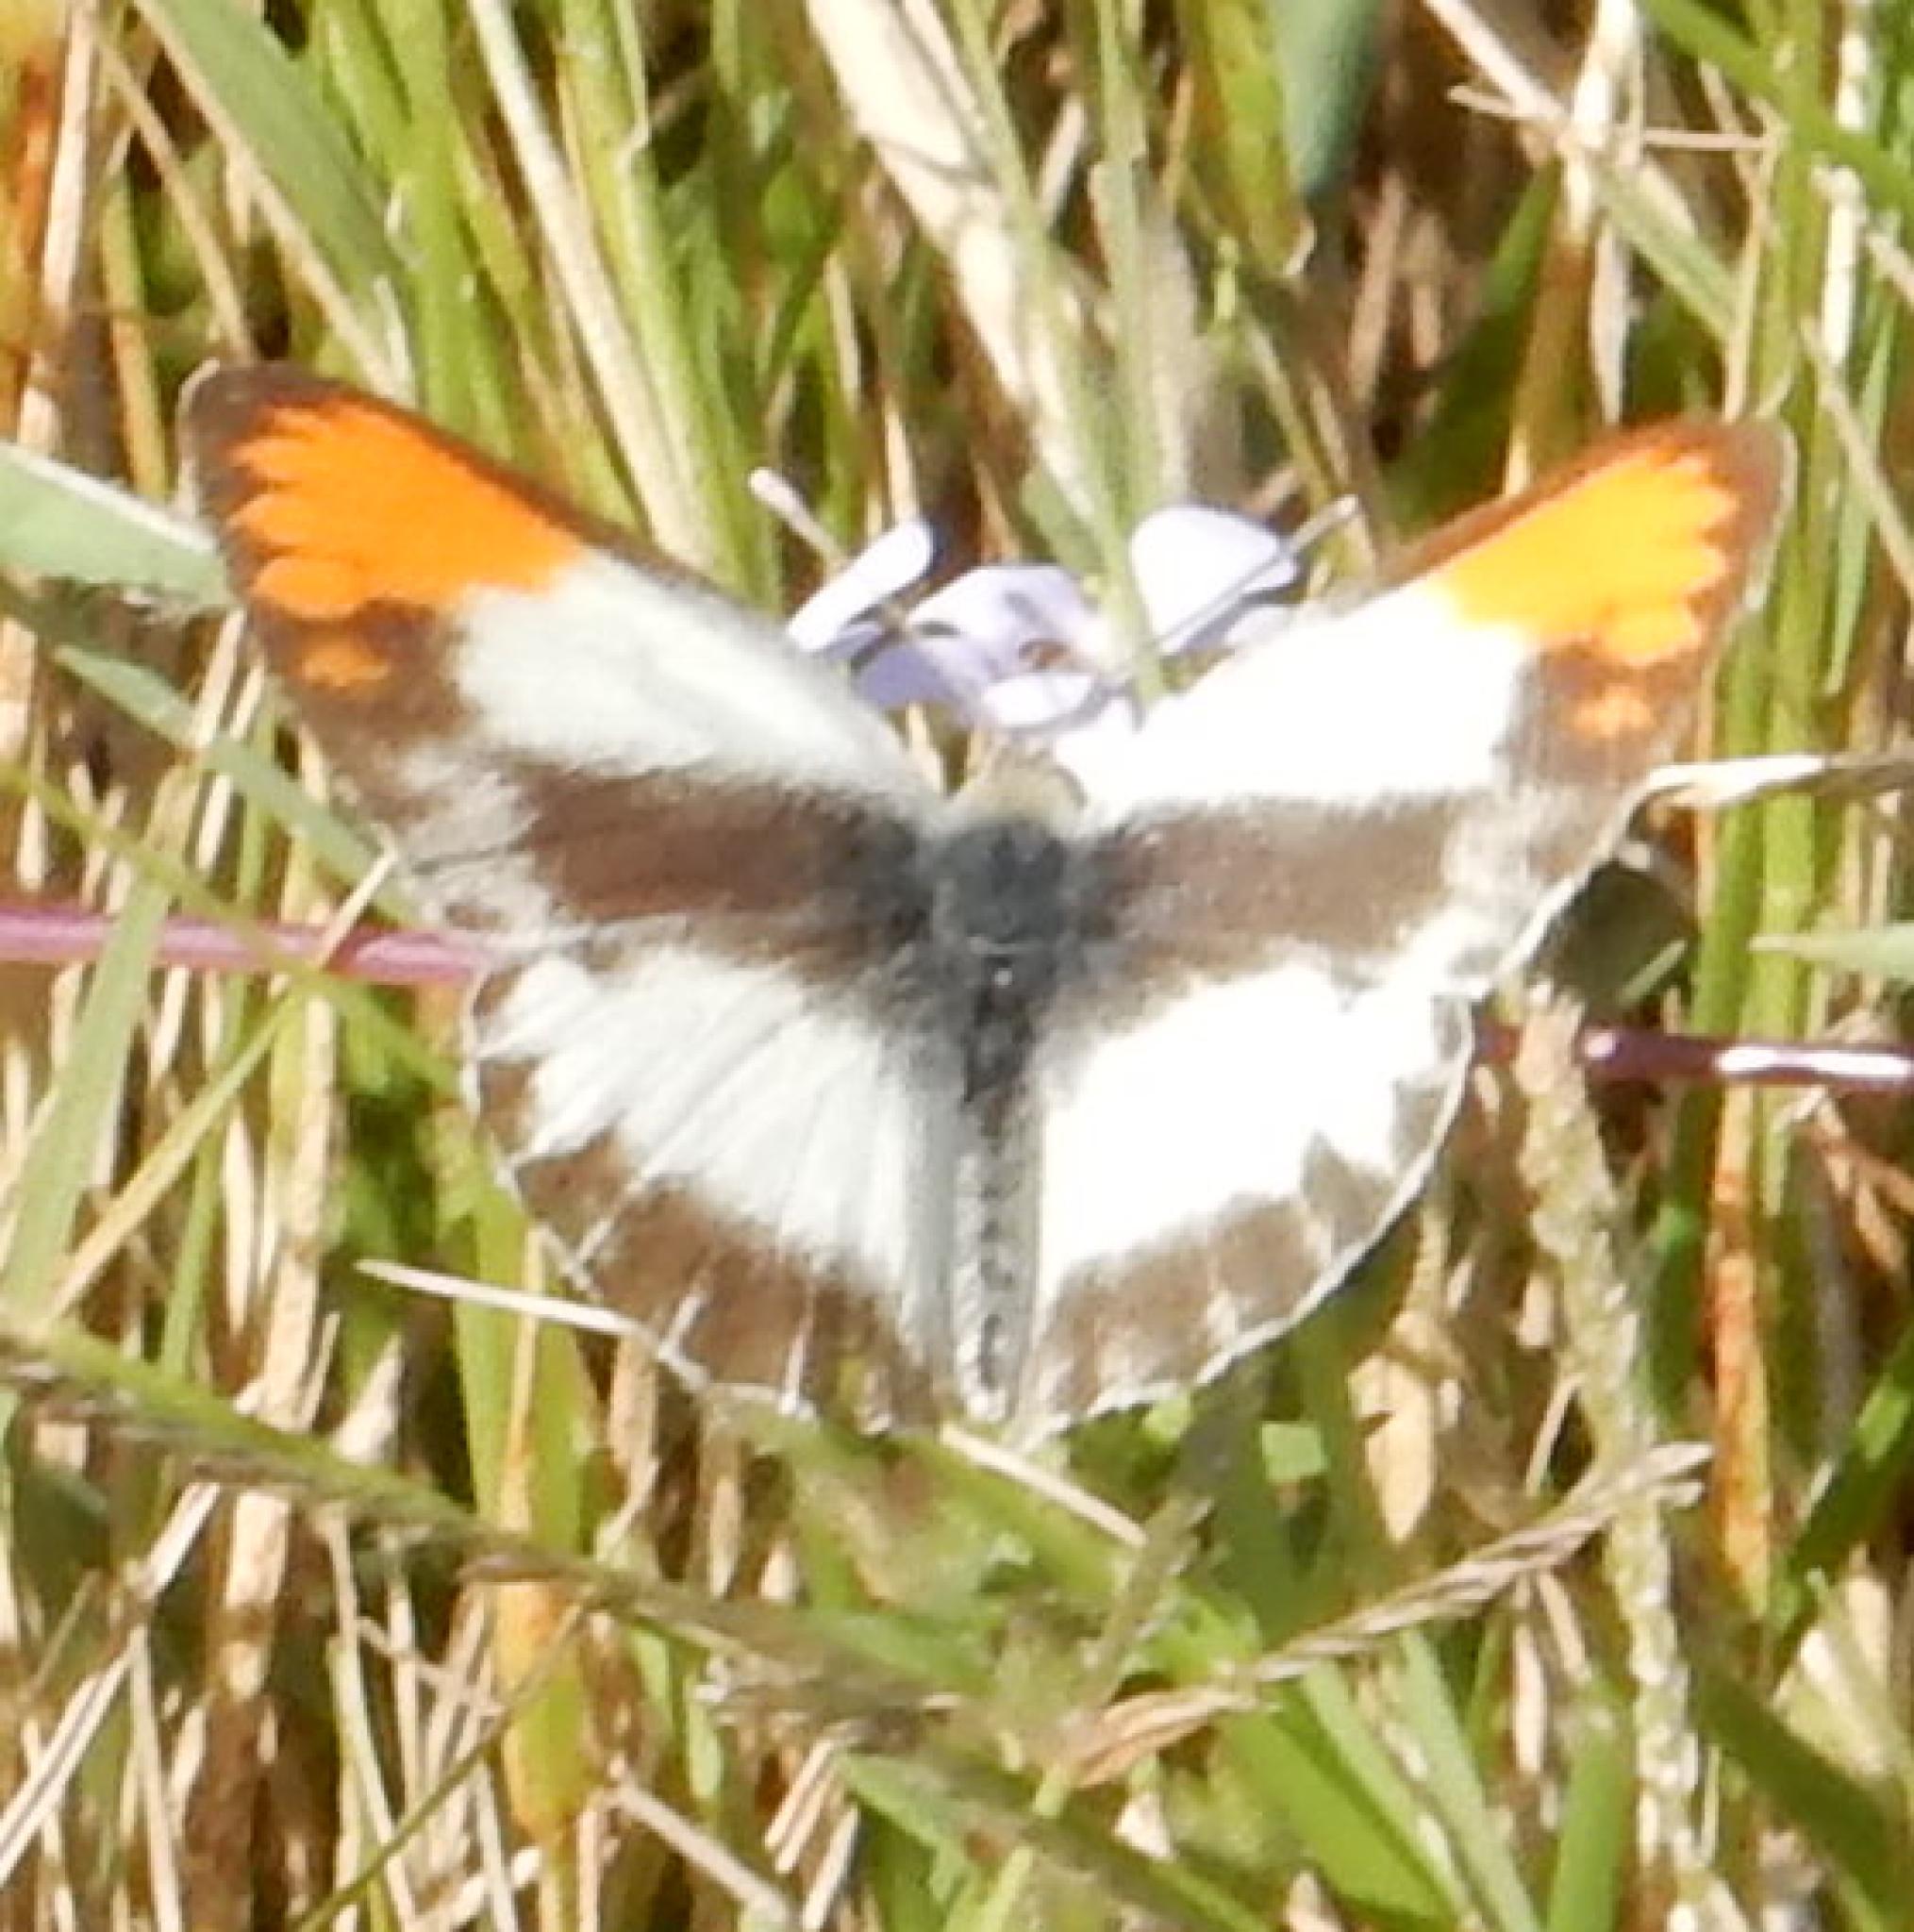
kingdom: Animalia
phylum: Arthropoda
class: Insecta
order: Lepidoptera
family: Pieridae
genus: Colotis
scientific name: Colotis evagore
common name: Desert orange-tip
